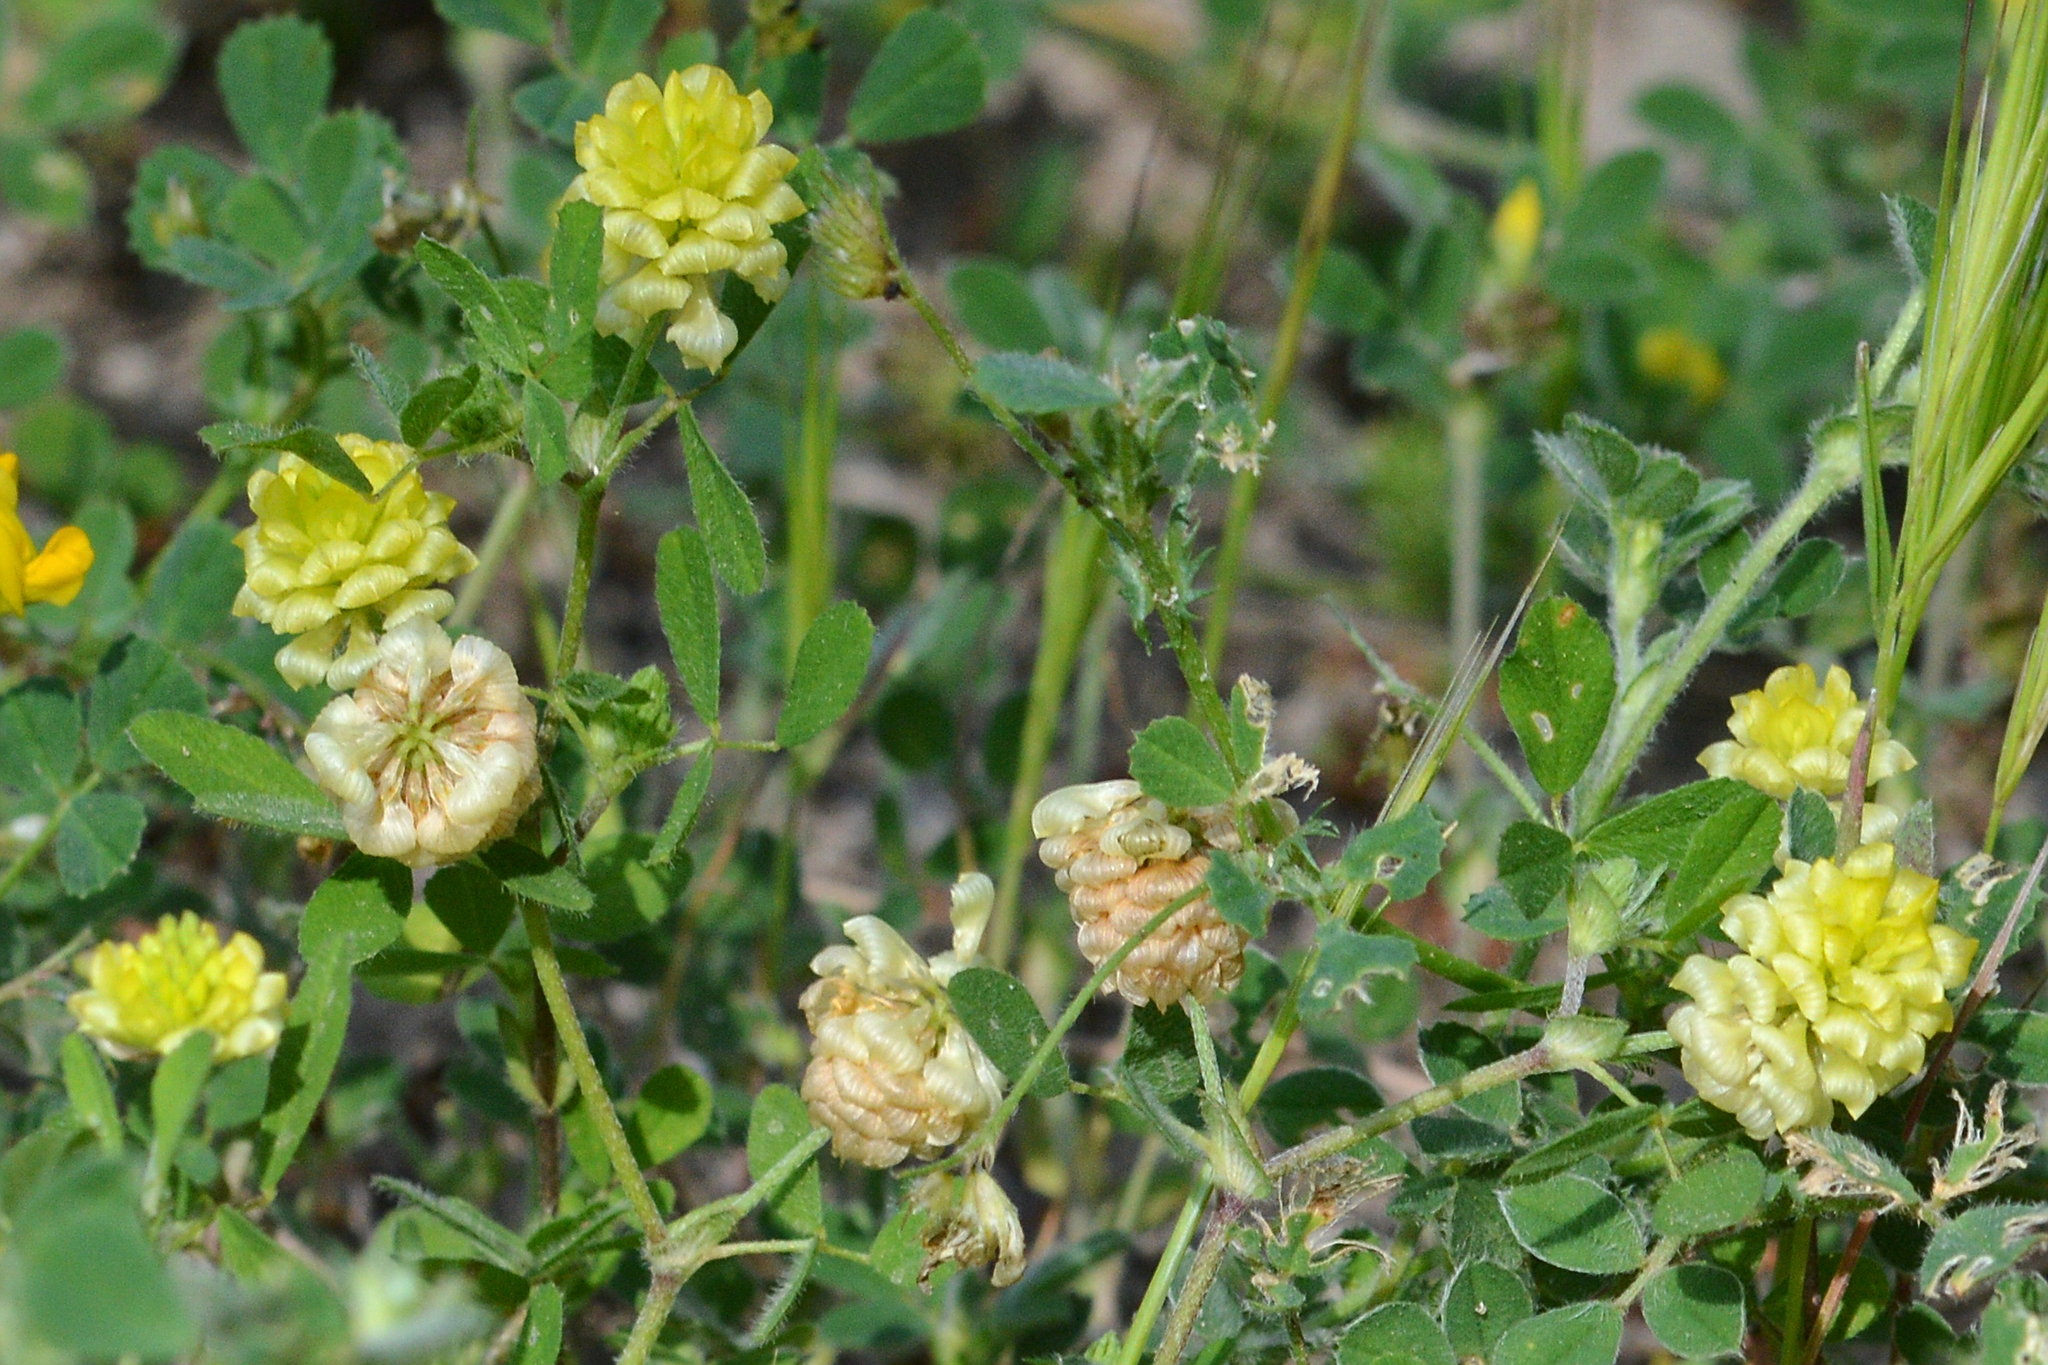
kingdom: Plantae
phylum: Tracheophyta
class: Magnoliopsida
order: Fabales
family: Fabaceae
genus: Trifolium
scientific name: Trifolium campestre
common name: Field clover
